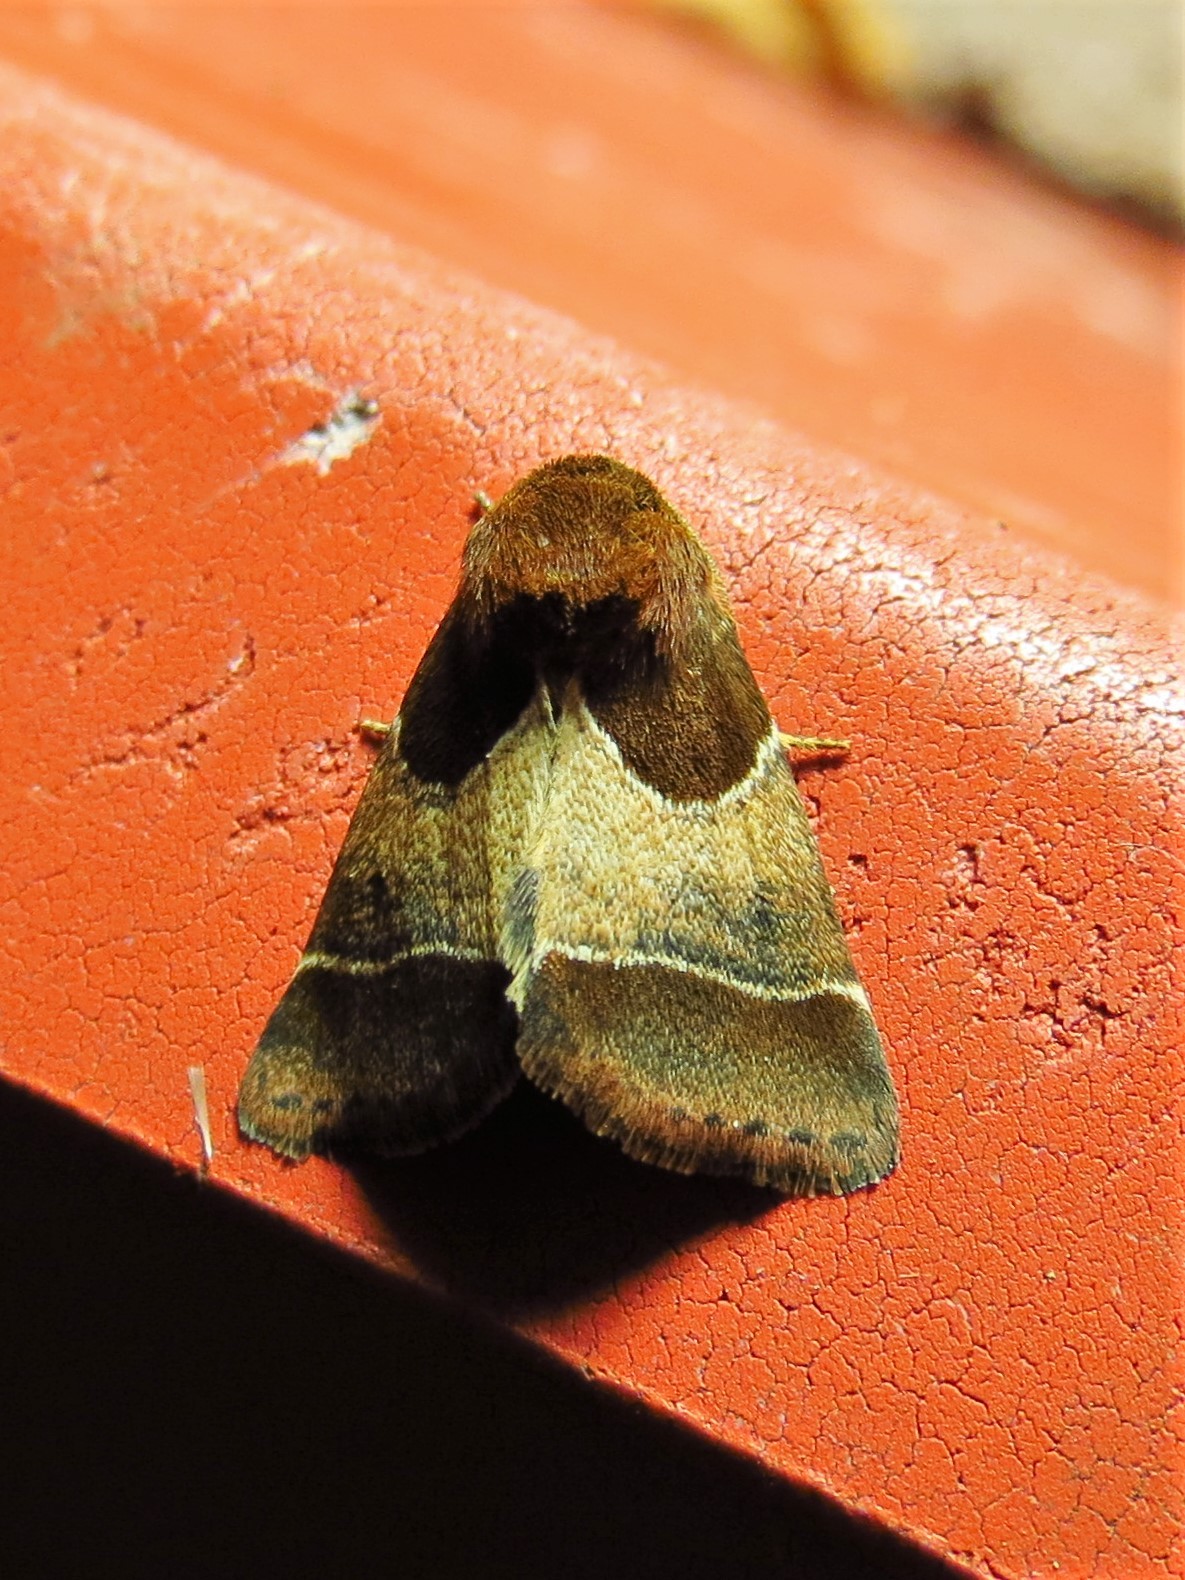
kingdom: Animalia
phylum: Arthropoda
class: Insecta
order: Lepidoptera
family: Noctuidae
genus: Schinia
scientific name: Schinia arcigera
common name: Arcigera flower moth
